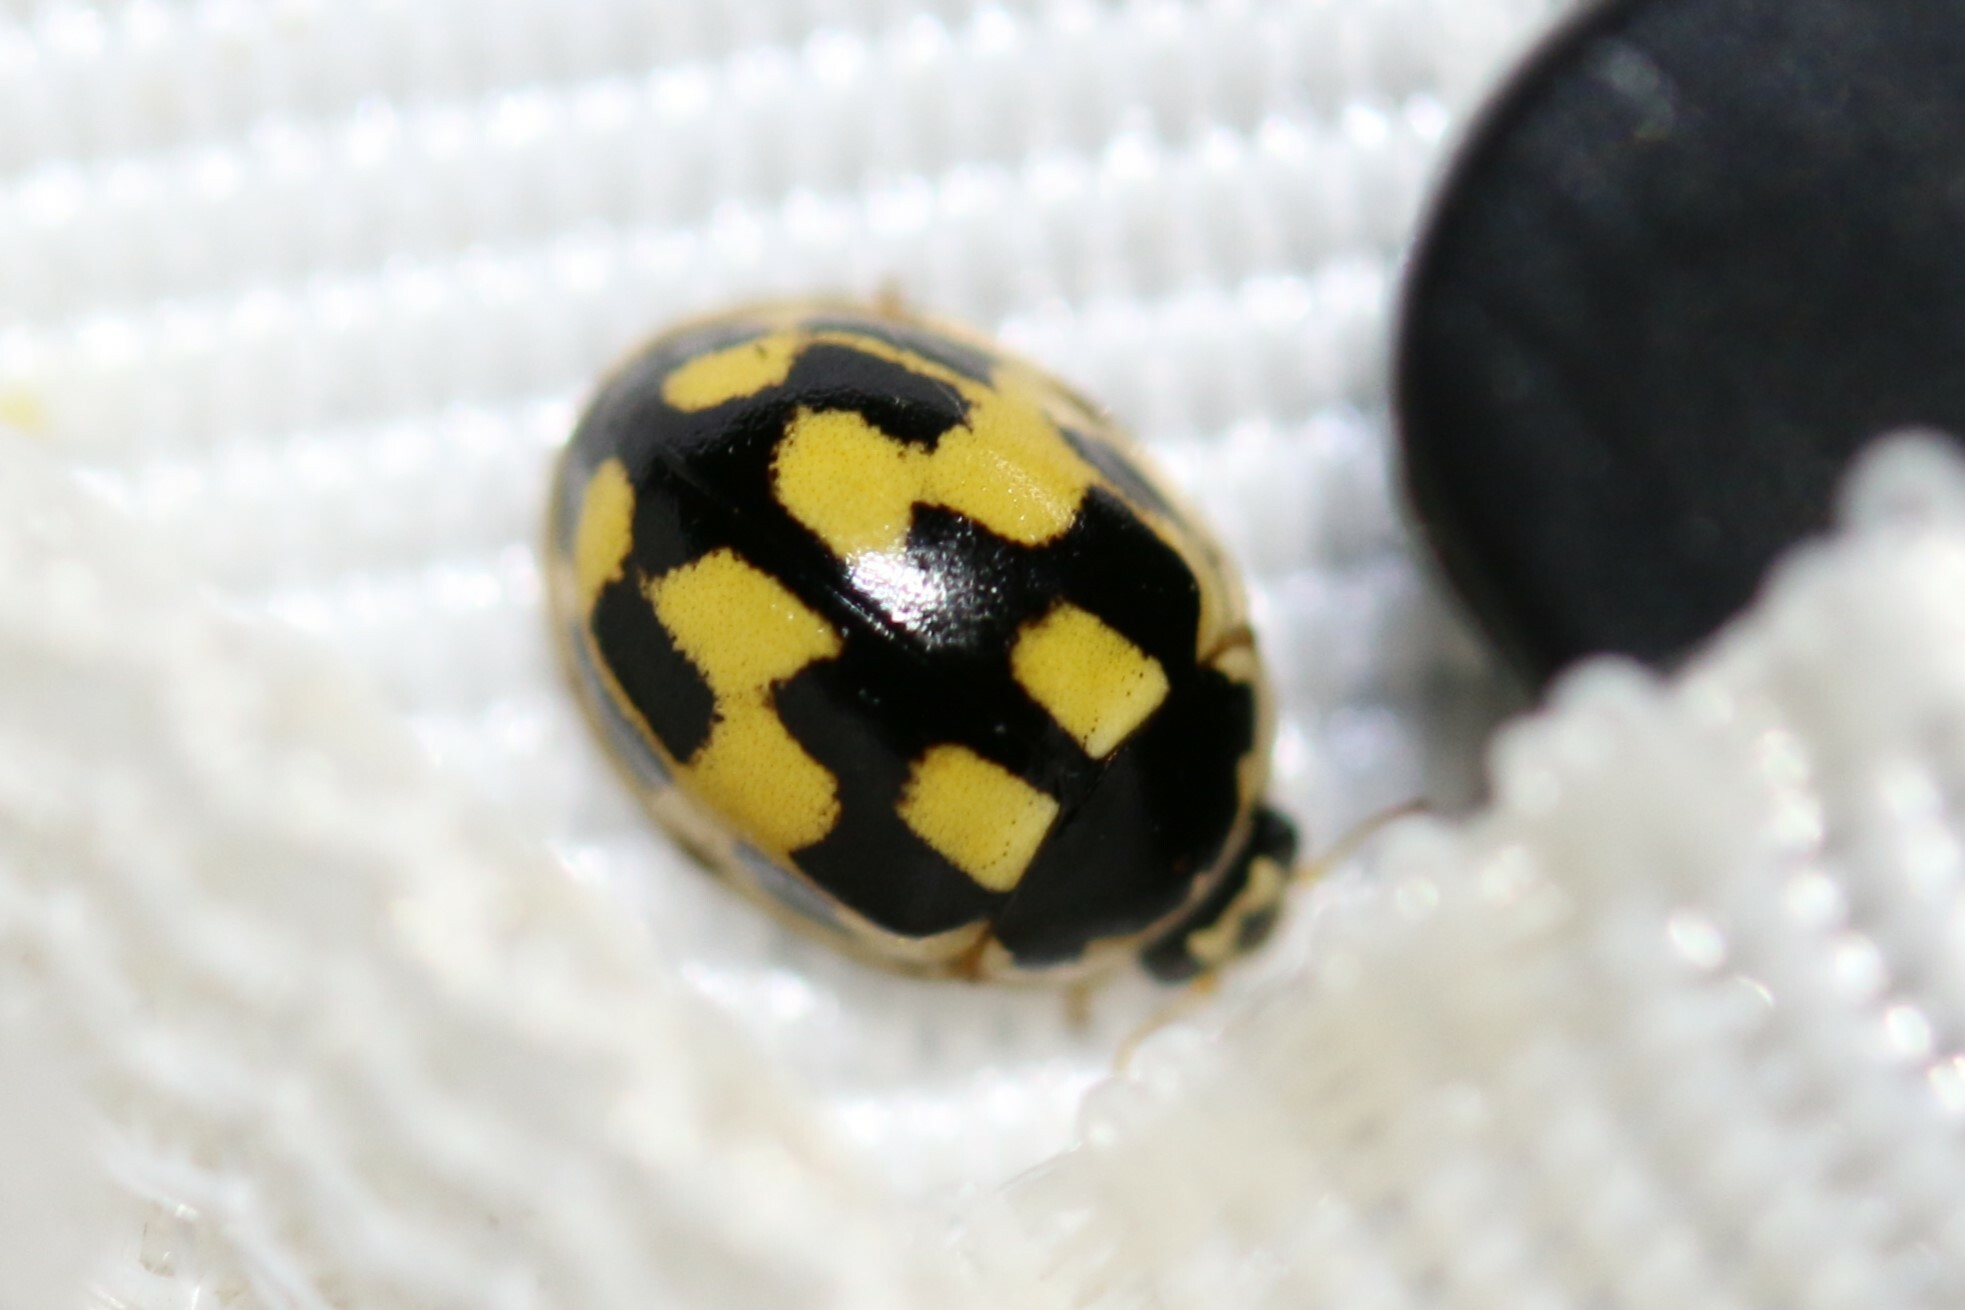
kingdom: Animalia
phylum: Arthropoda
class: Insecta
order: Coleoptera
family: Coccinellidae
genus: Propylaea
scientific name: Propylaea quatuordecimpunctata
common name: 14-spotted ladybird beetle
